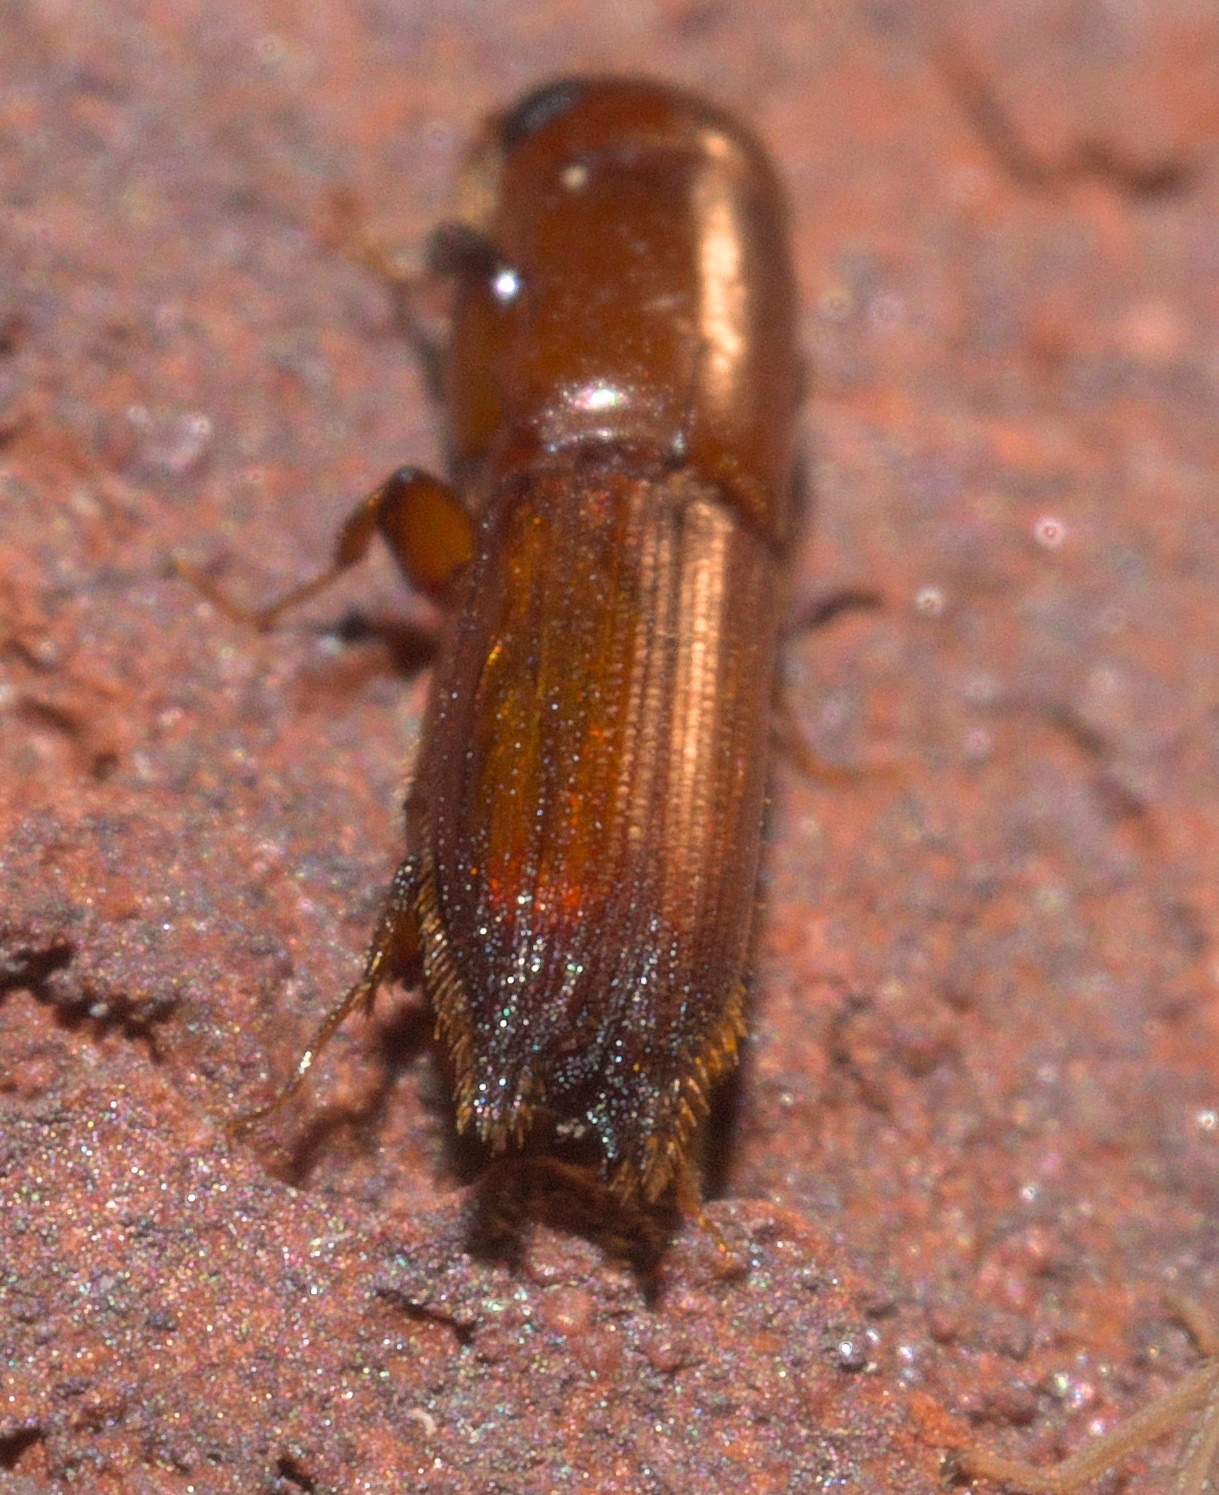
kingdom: Animalia
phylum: Arthropoda
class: Insecta
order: Coleoptera
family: Curculionidae
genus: Euplatypus
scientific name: Euplatypus compositus
